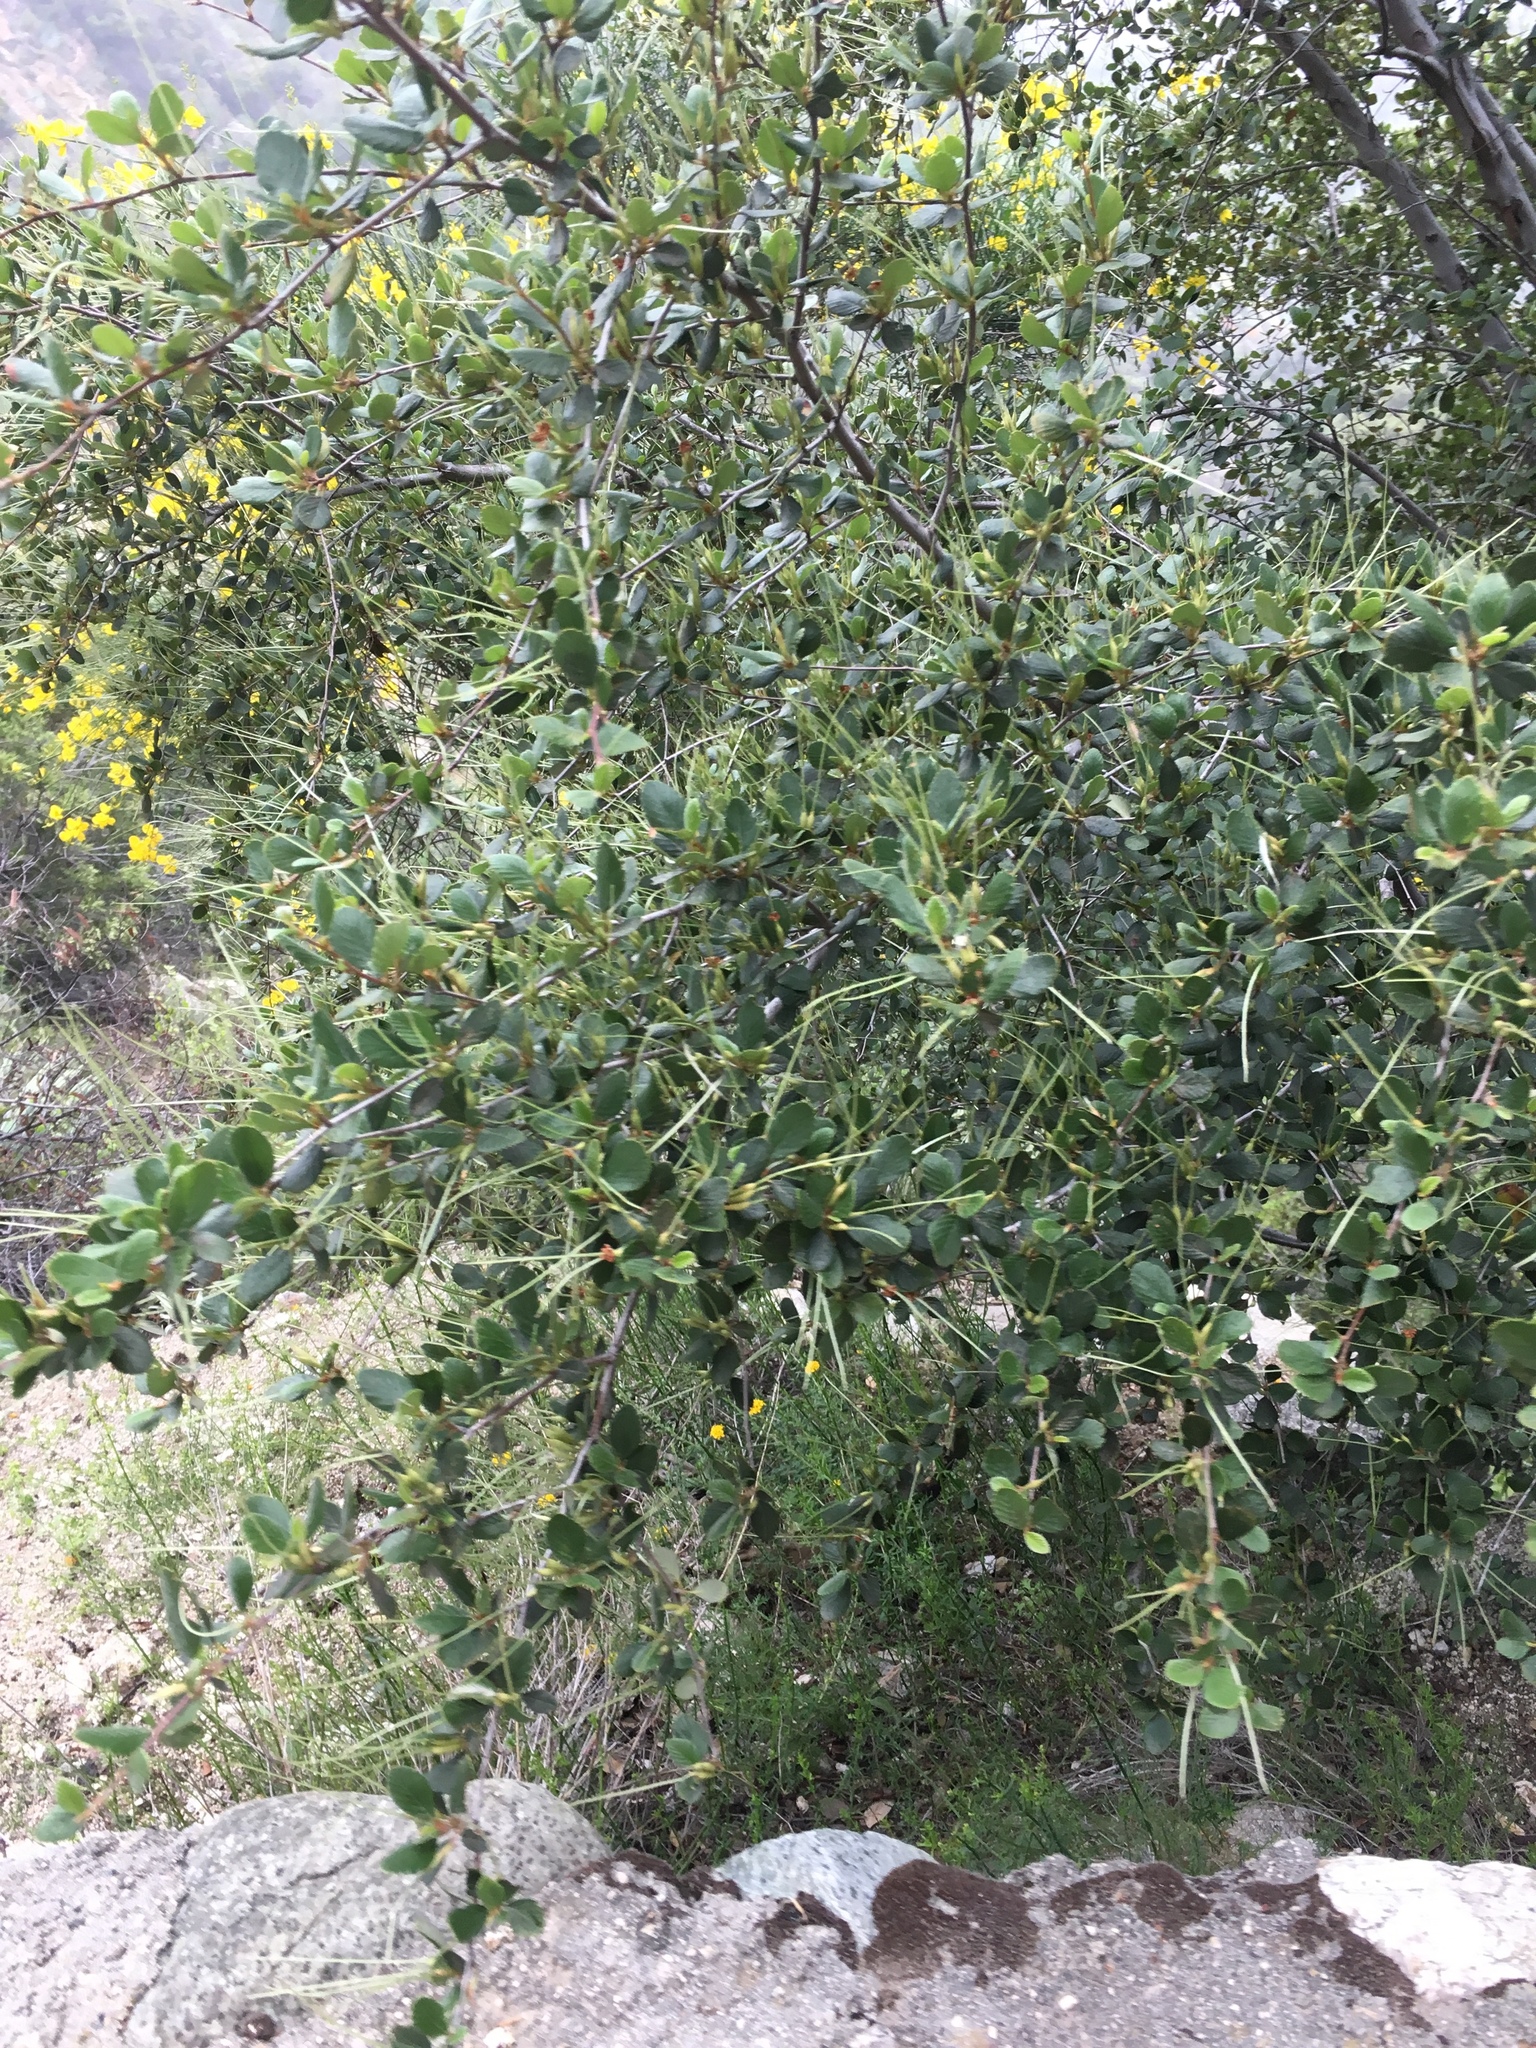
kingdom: Plantae
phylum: Tracheophyta
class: Magnoliopsida
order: Rosales
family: Rosaceae
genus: Cercocarpus
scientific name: Cercocarpus
